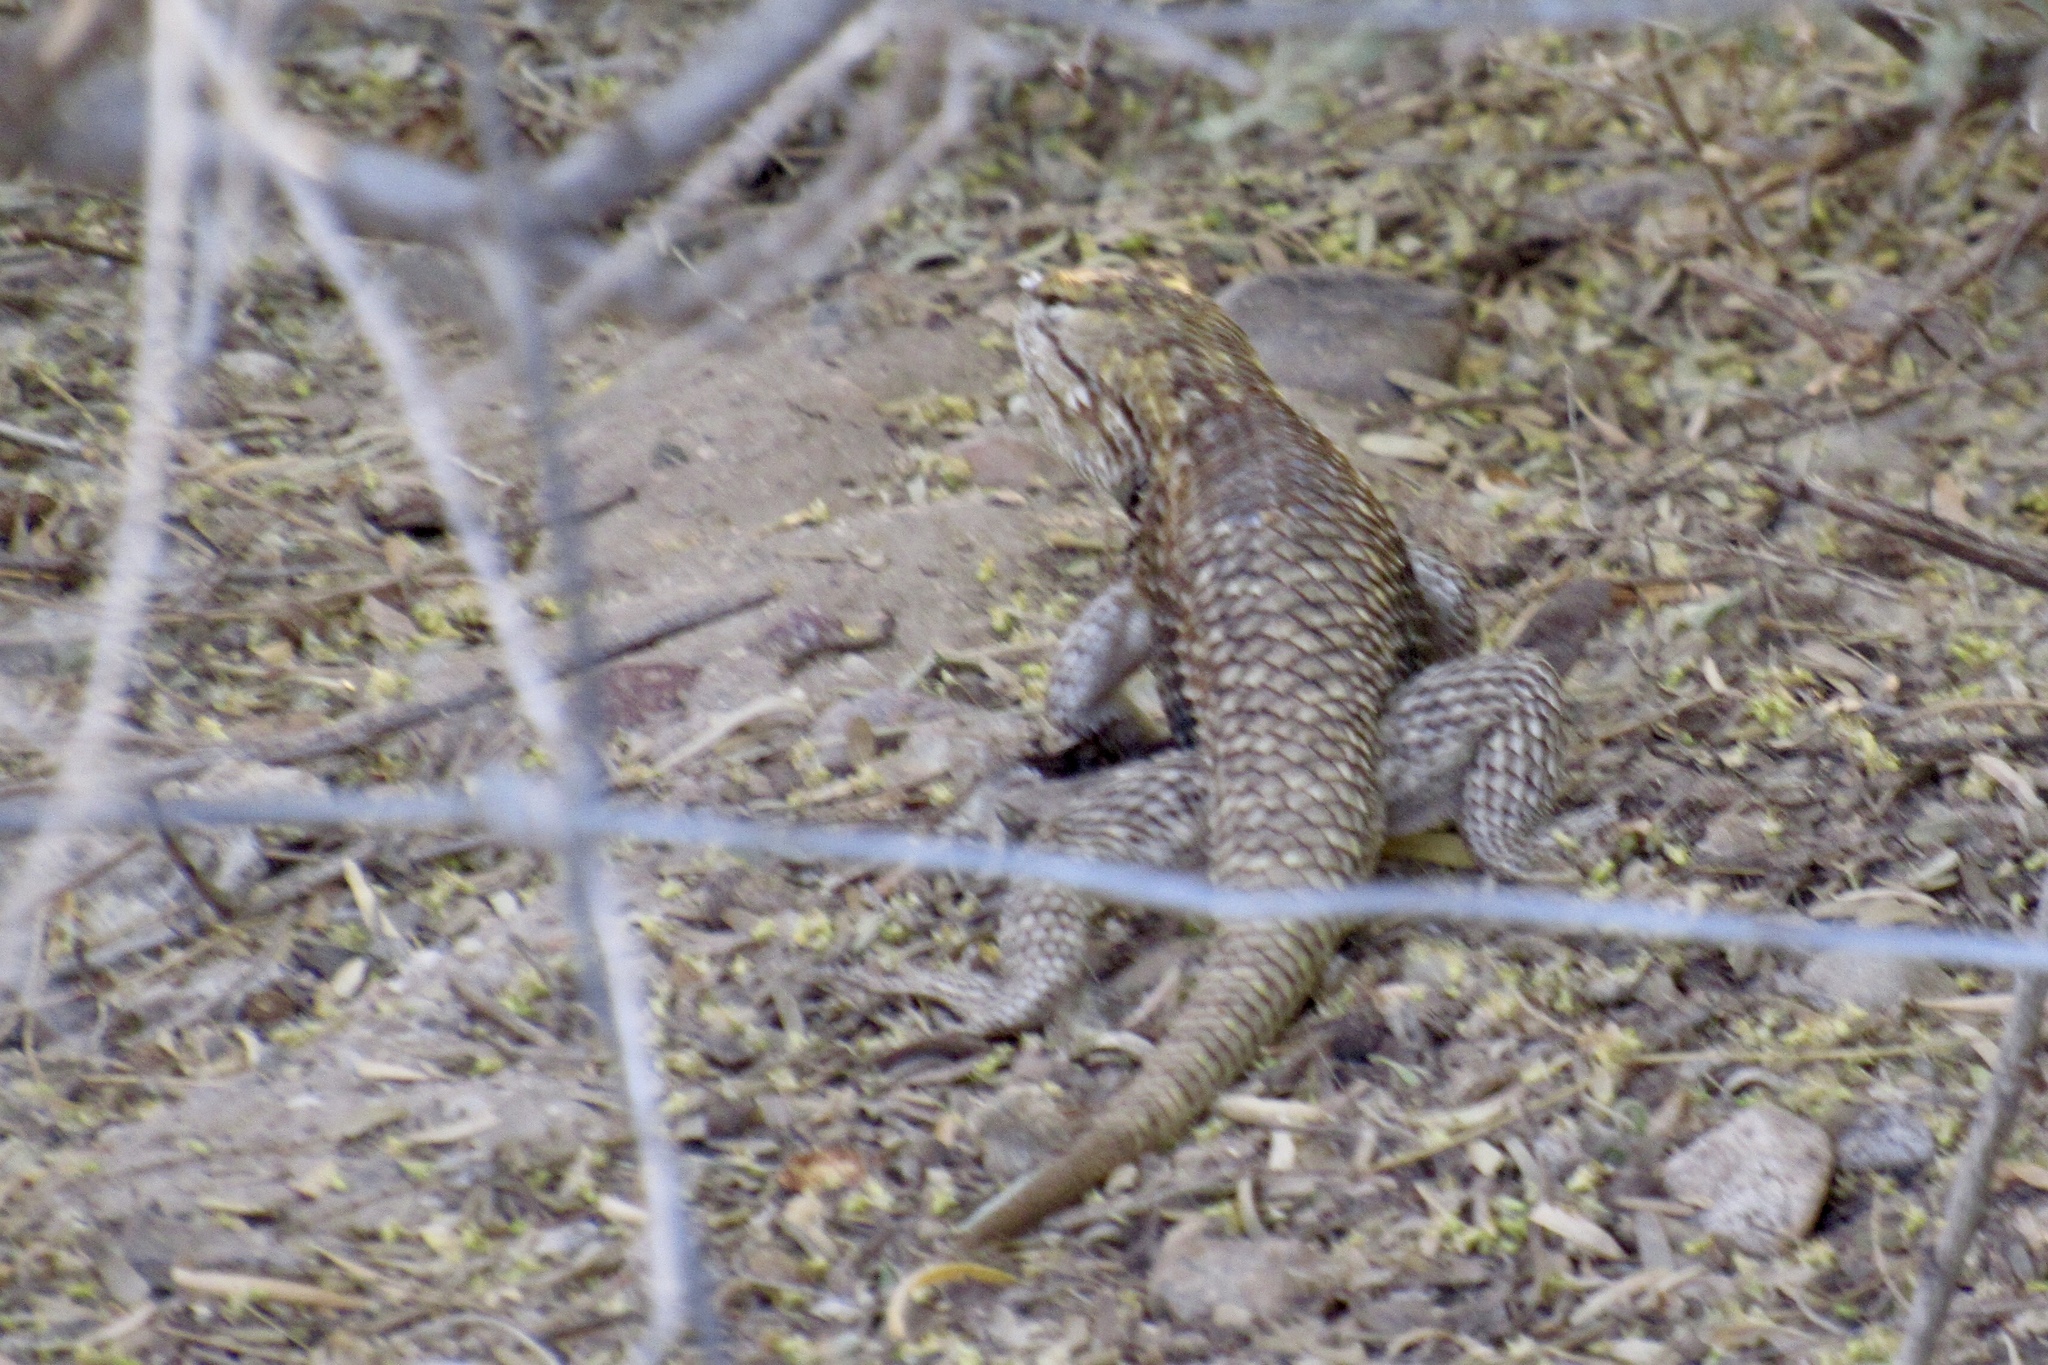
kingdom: Animalia
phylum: Chordata
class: Squamata
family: Phrynosomatidae
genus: Sceloporus
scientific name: Sceloporus magister
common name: Desert spiny lizard
